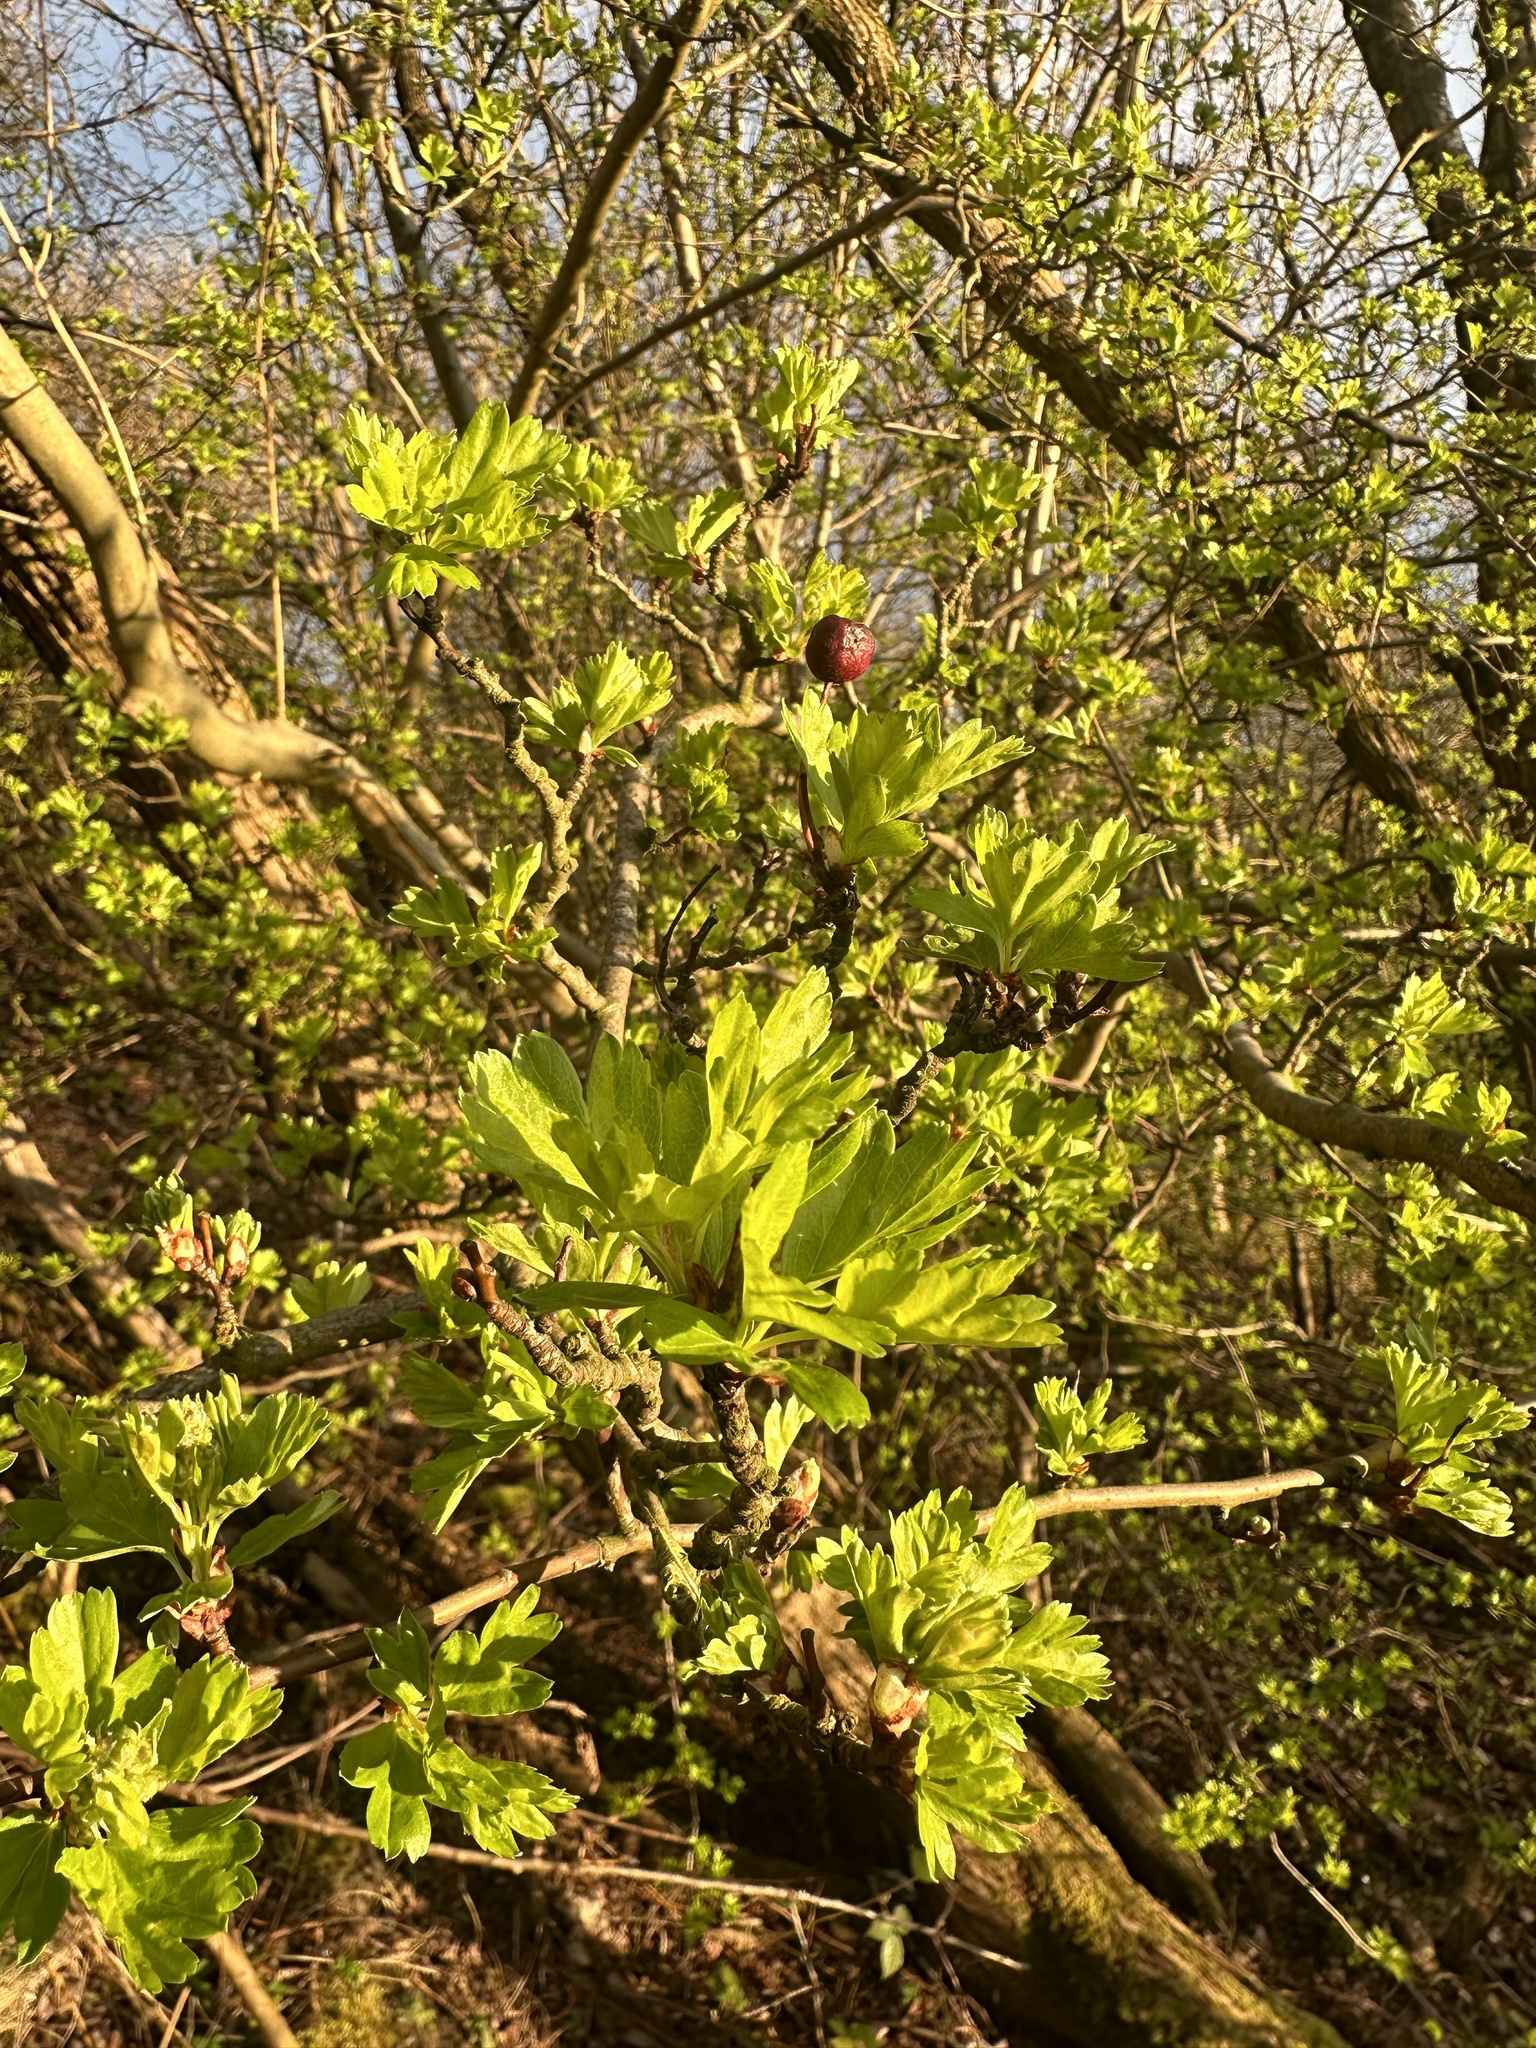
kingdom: Plantae
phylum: Tracheophyta
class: Magnoliopsida
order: Rosales
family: Rosaceae
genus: Crataegus
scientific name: Crataegus monogyna
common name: Hawthorn
